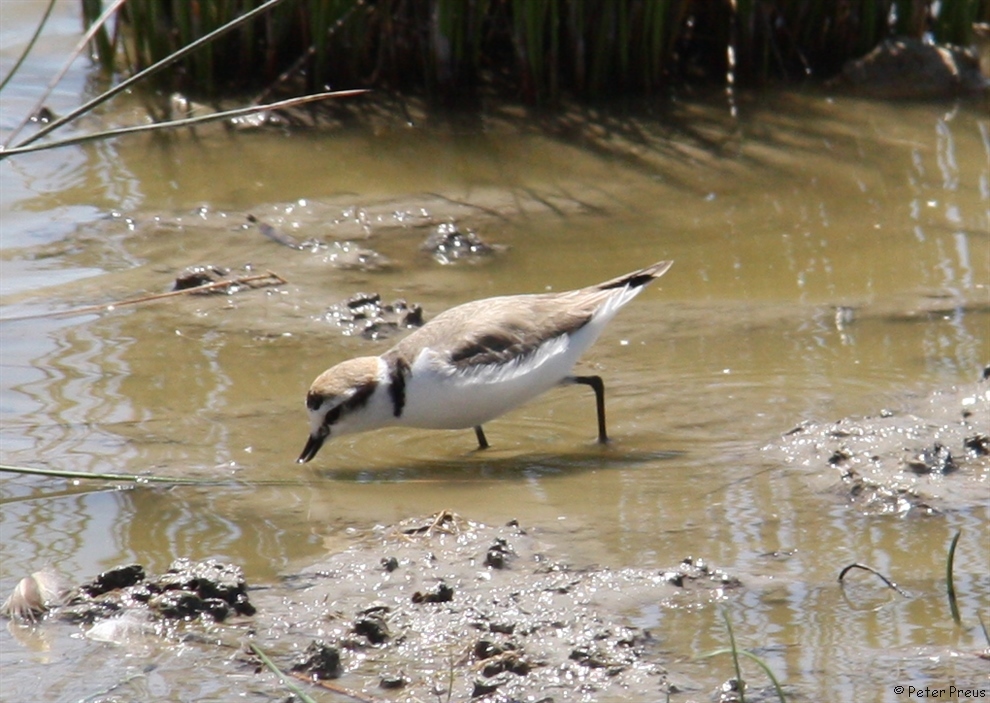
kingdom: Animalia
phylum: Chordata
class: Aves
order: Charadriiformes
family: Charadriidae
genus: Charadrius
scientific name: Charadrius alexandrinus
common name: Kentish plover
